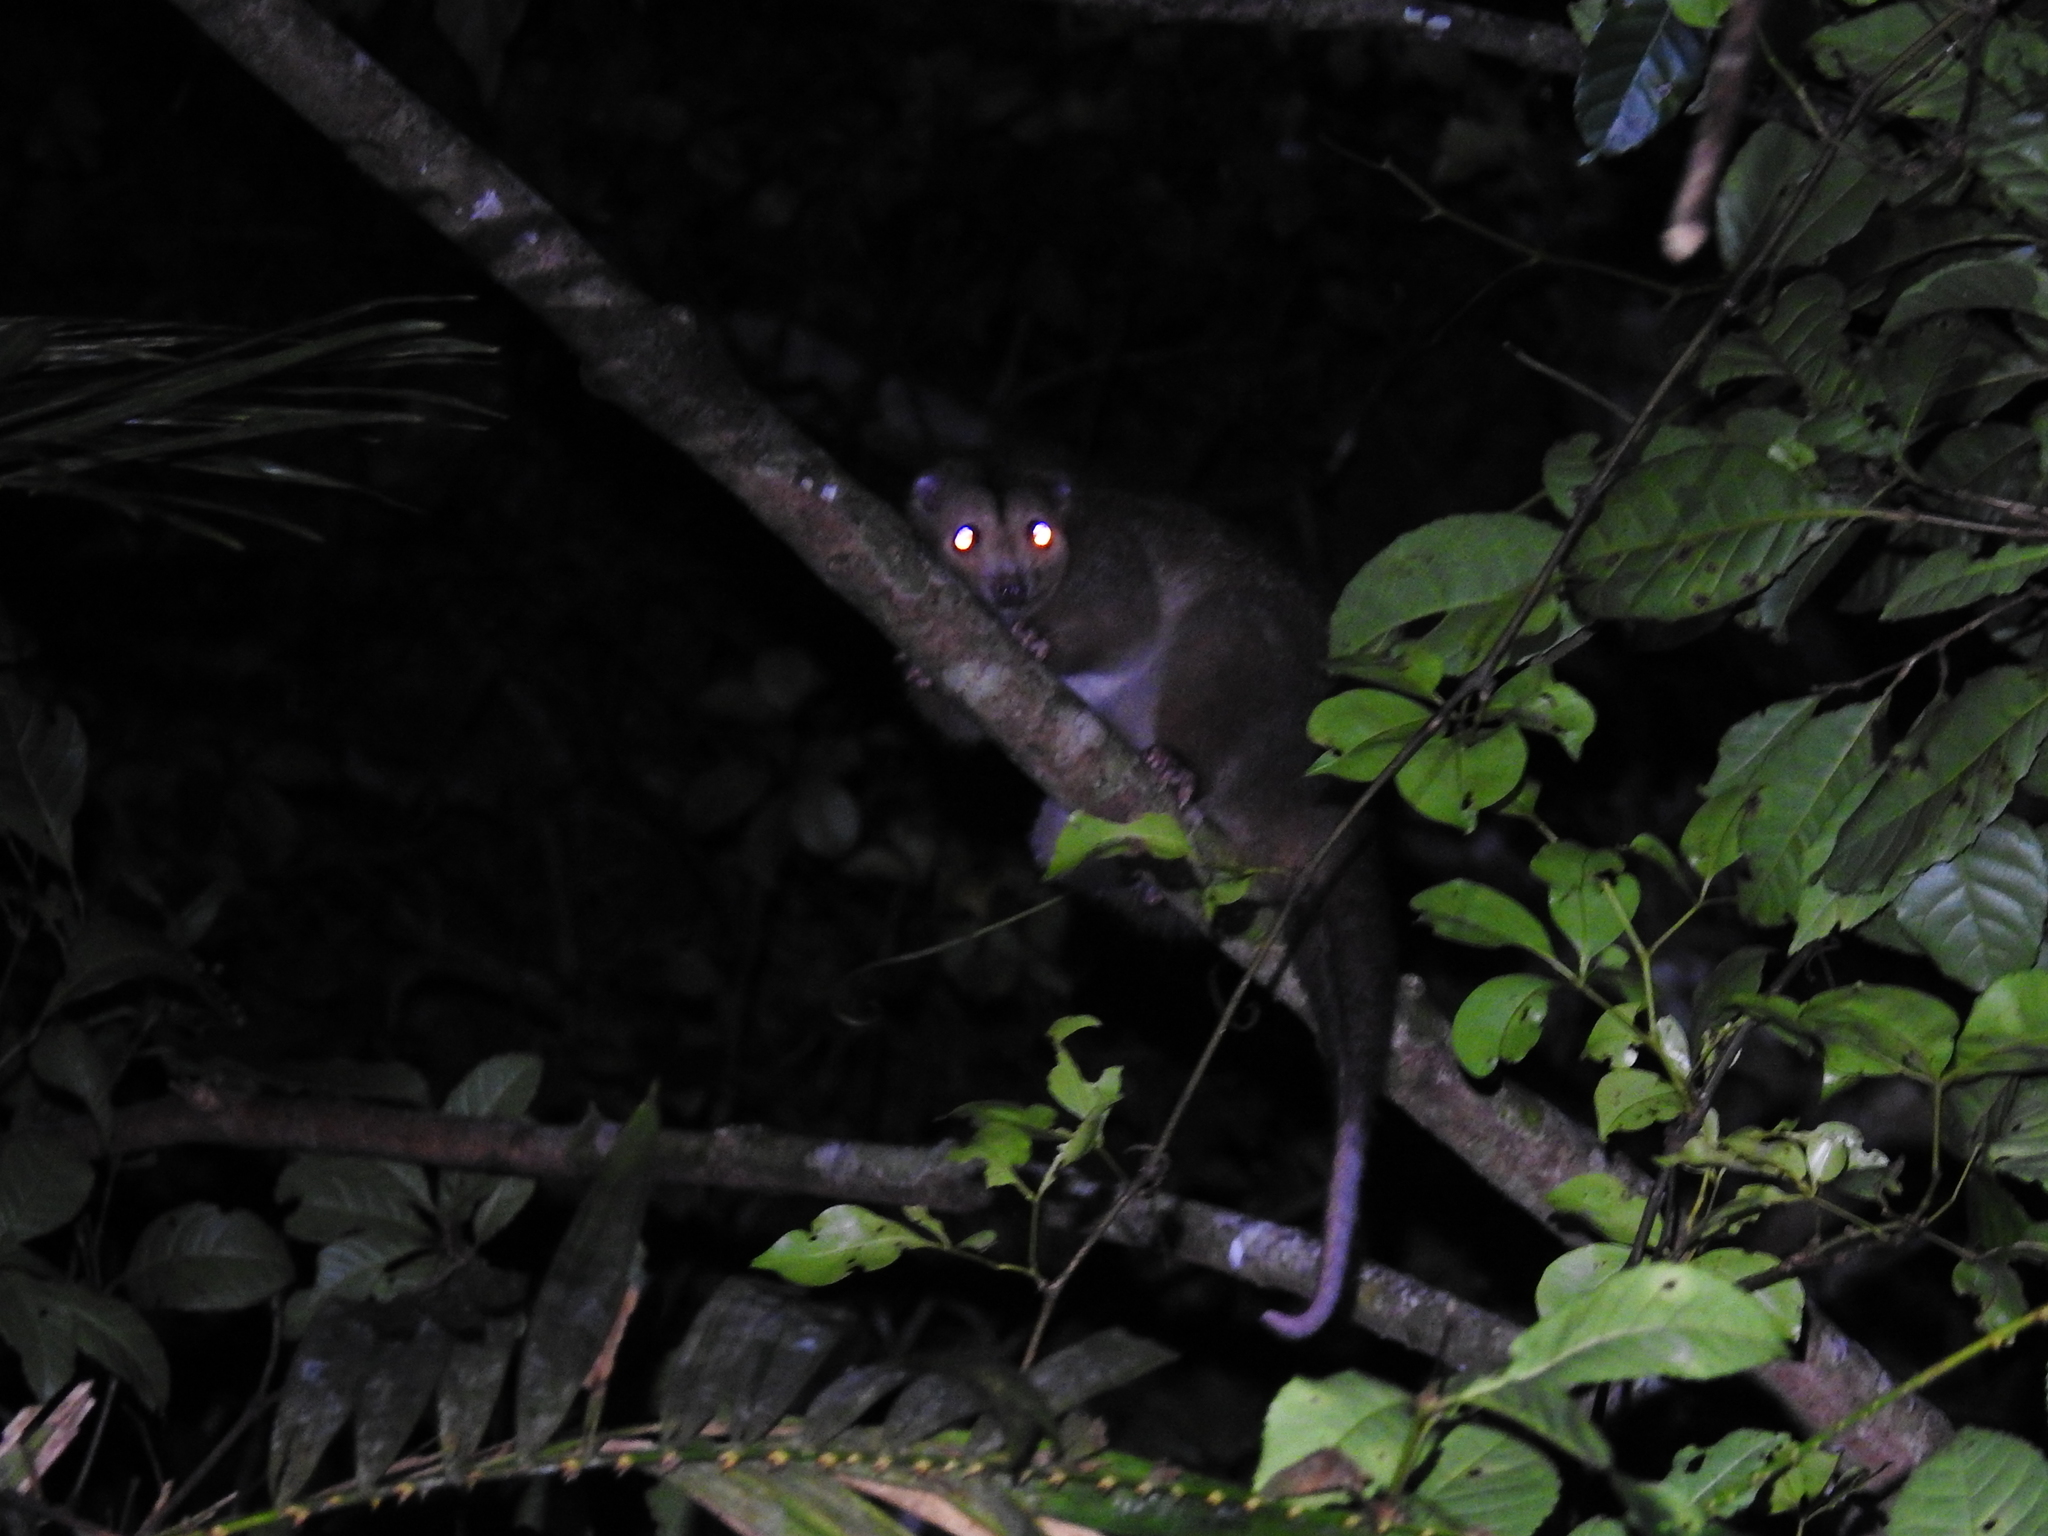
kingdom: Animalia
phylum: Chordata
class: Mammalia
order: Diprotodontia
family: Pseudocheiridae
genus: Pseudochirulus
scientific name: Pseudochirulus cinereus
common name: Cinereous ringtail
